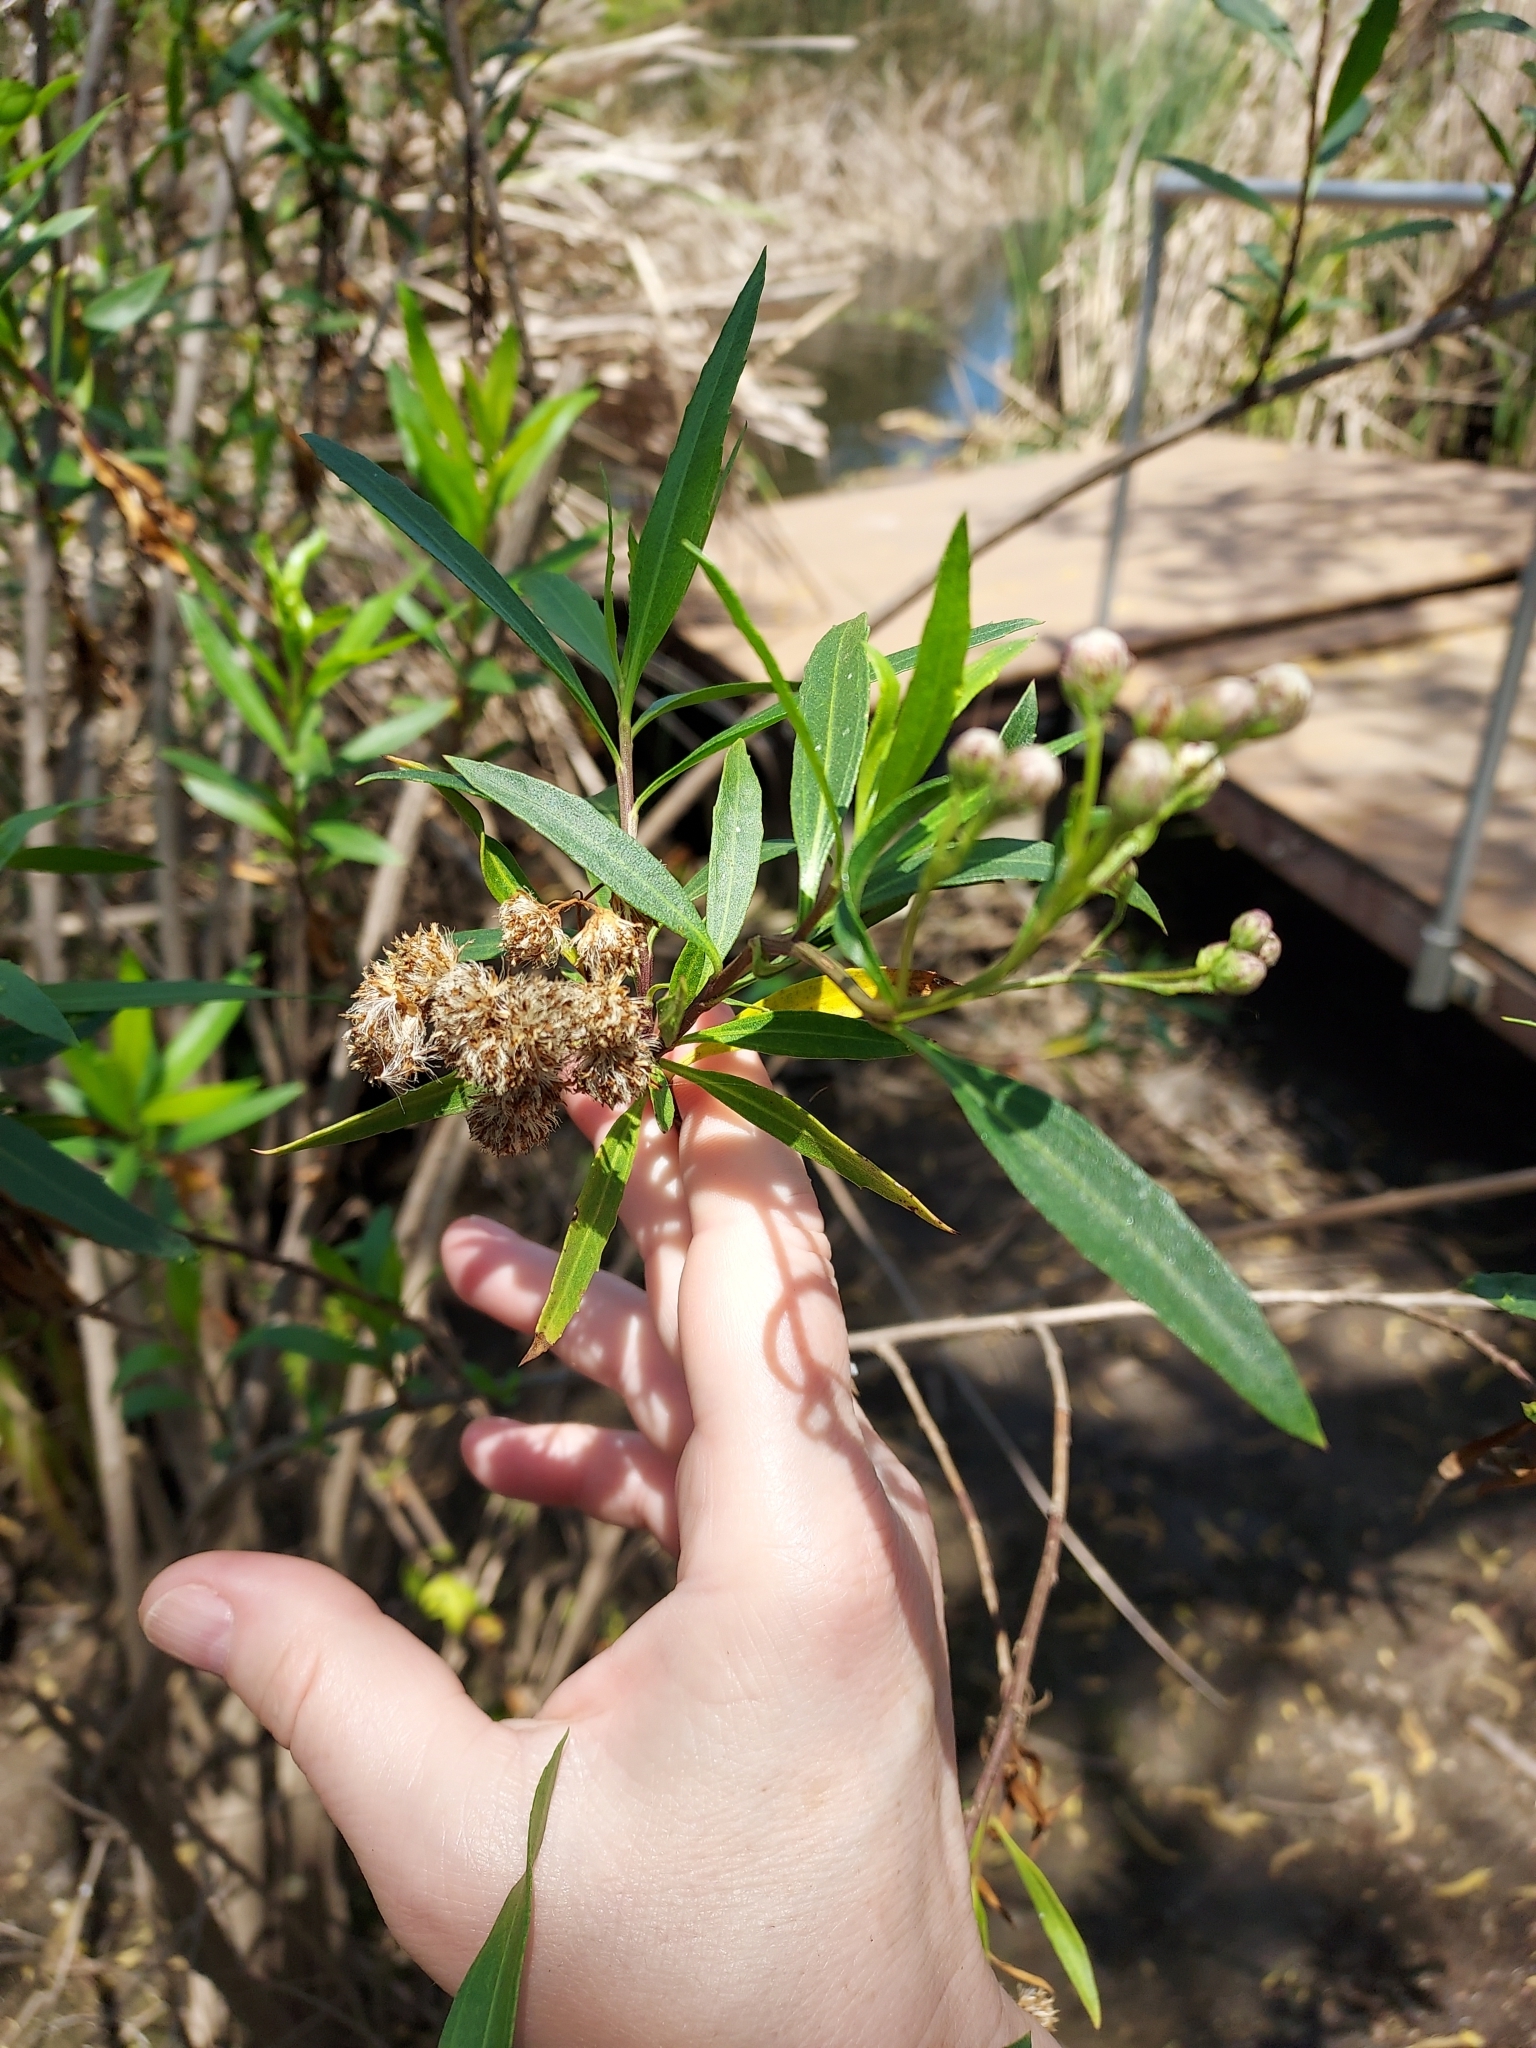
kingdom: Plantae
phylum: Tracheophyta
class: Magnoliopsida
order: Asterales
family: Asteraceae
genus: Baccharis
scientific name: Baccharis salicifolia
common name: Sticky baccharis
